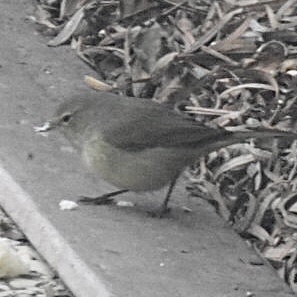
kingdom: Animalia
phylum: Chordata
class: Aves
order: Passeriformes
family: Parulidae
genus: Leiothlypis
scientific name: Leiothlypis celata
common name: Orange-crowned warbler
